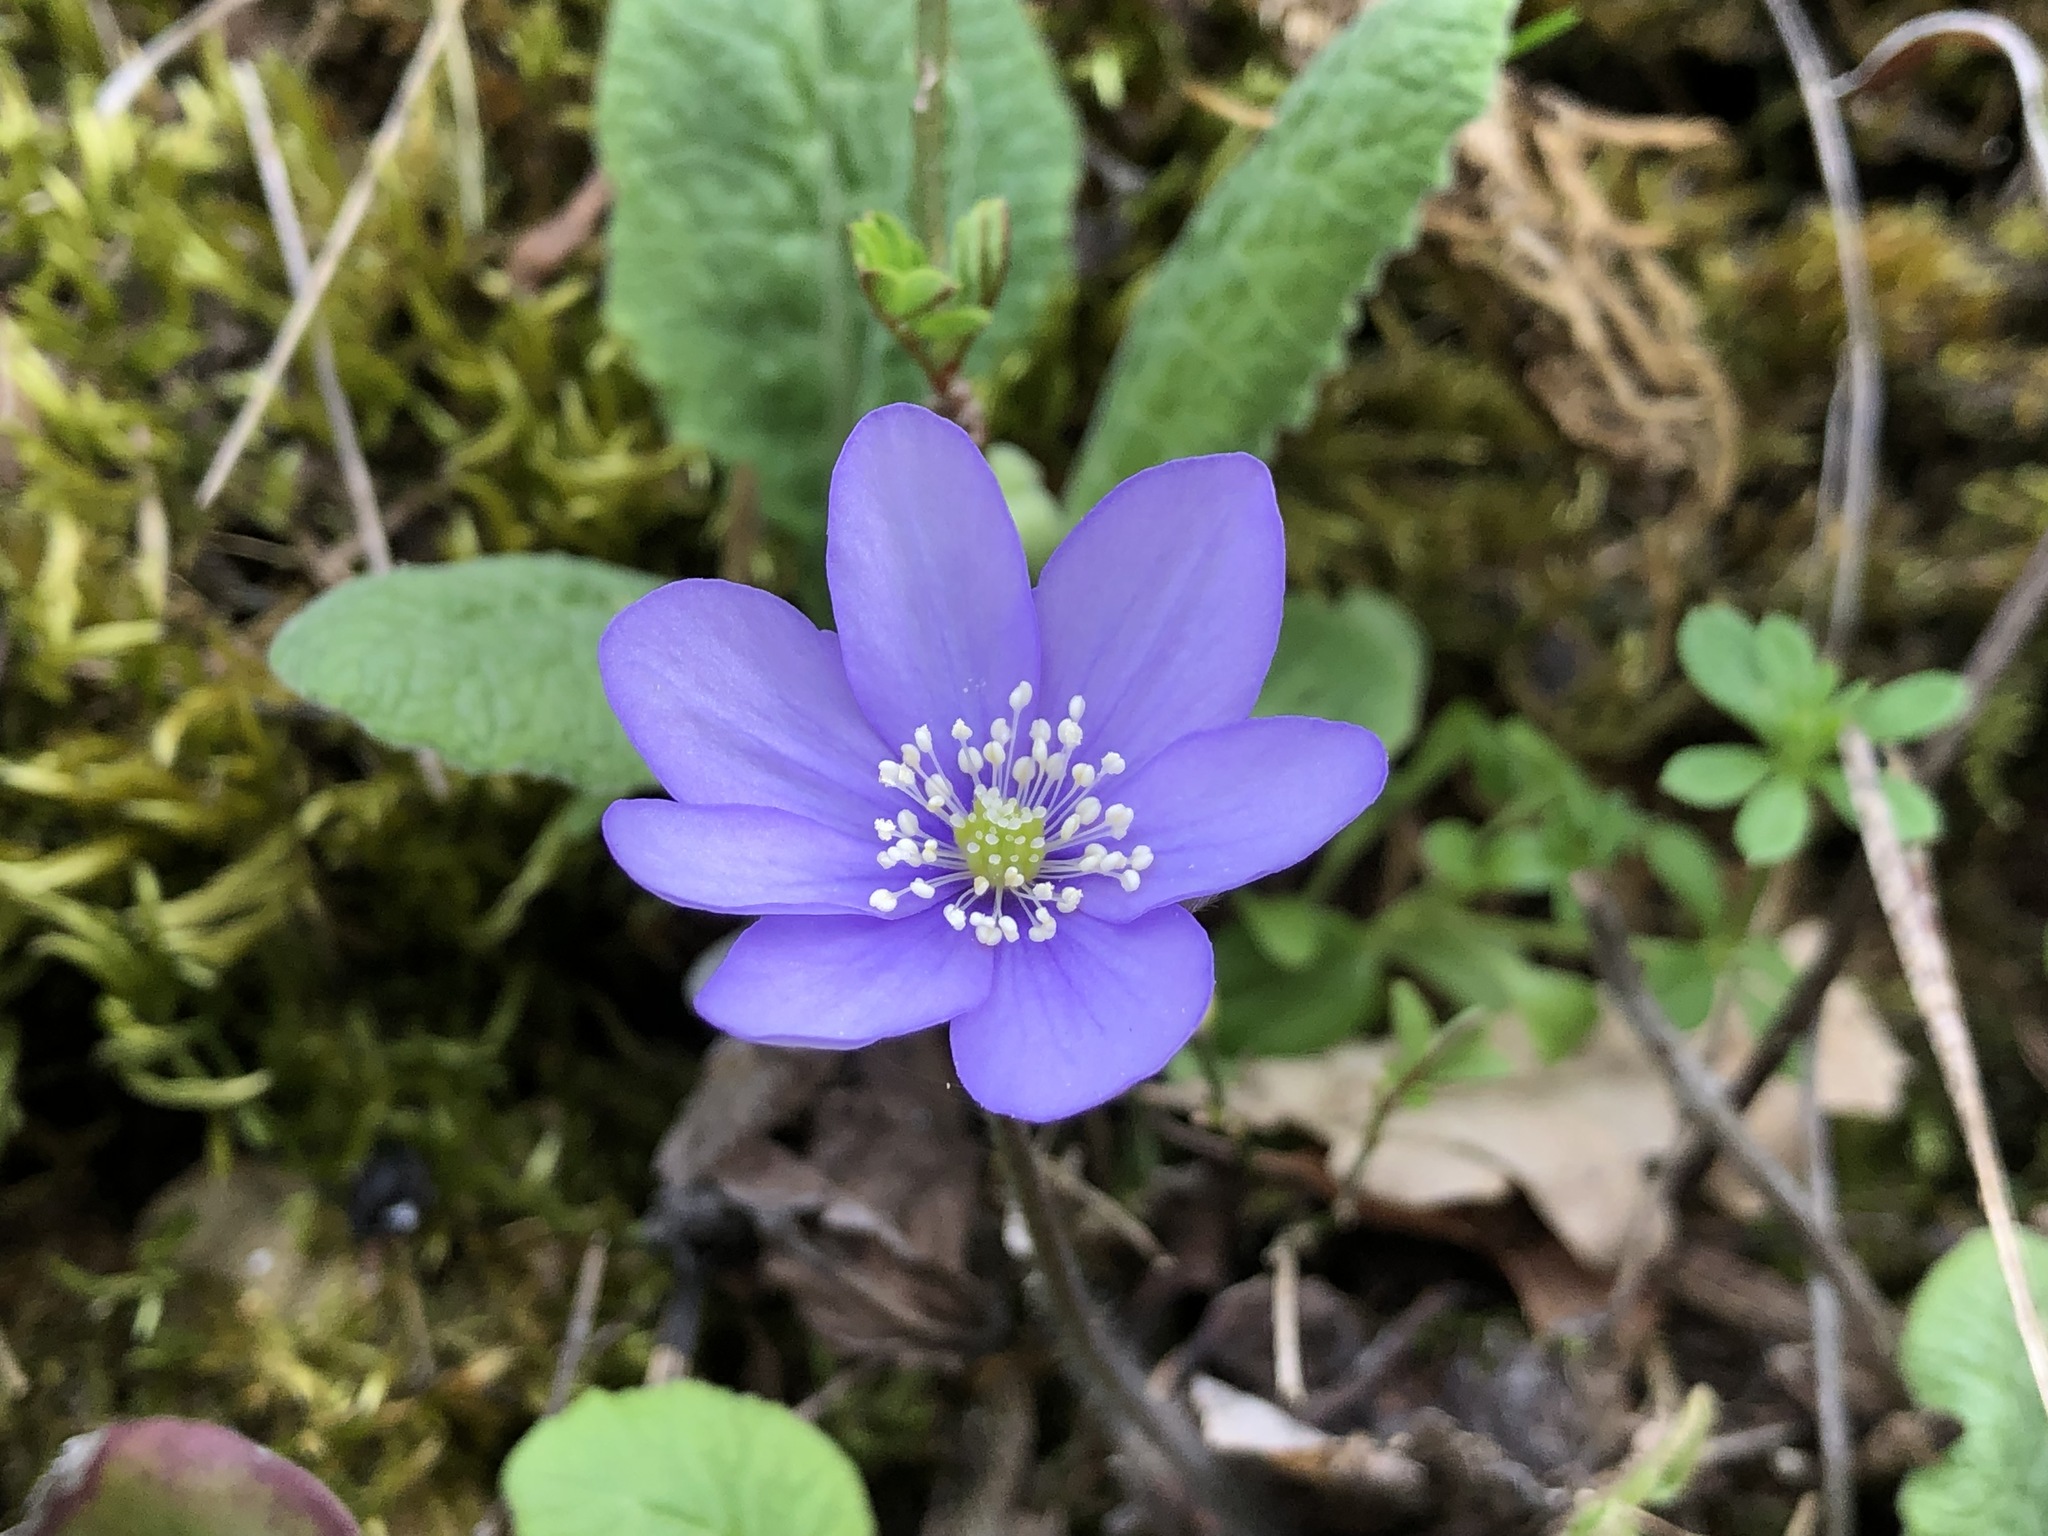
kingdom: Plantae
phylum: Tracheophyta
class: Magnoliopsida
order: Ranunculales
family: Ranunculaceae
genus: Hepatica
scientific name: Hepatica nobilis
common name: Liverleaf
